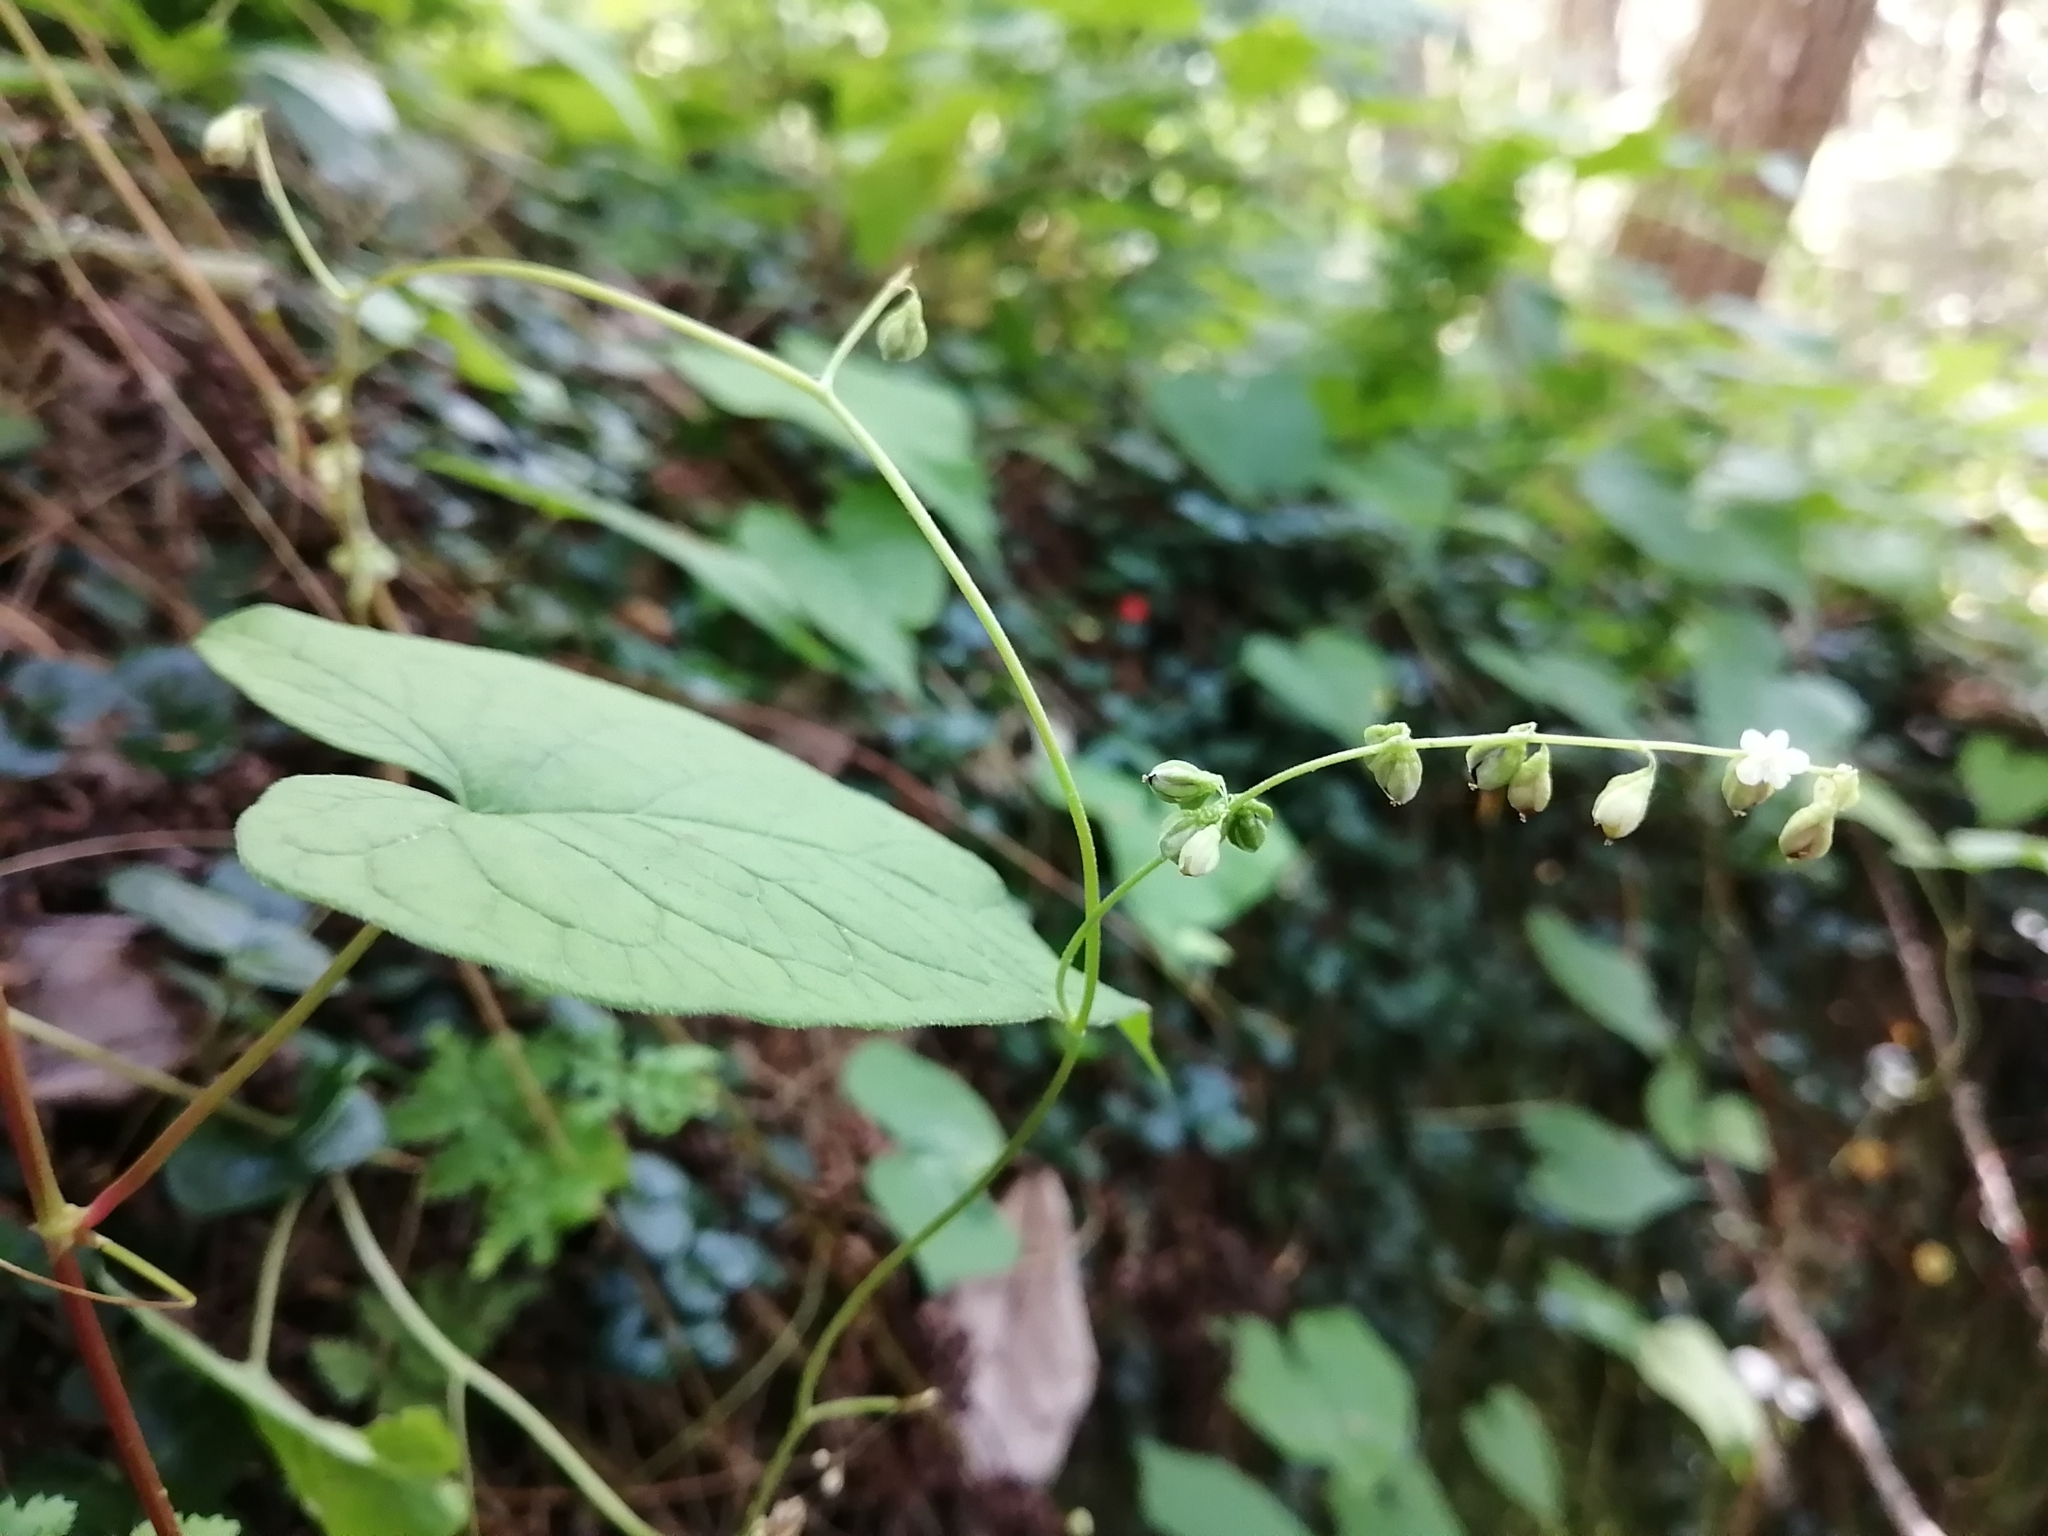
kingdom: Plantae
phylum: Tracheophyta
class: Magnoliopsida
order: Caryophyllales
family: Polygonaceae
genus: Parogonum
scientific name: Parogonum ciliinode
